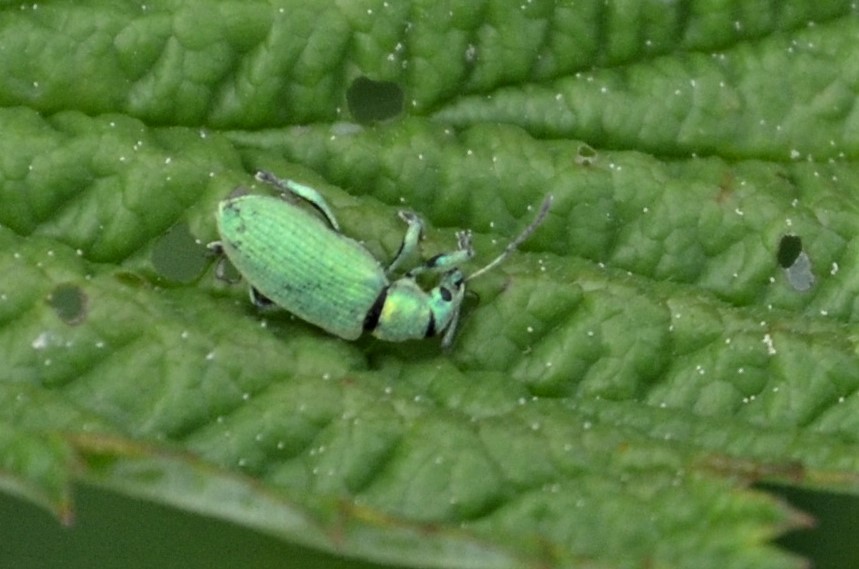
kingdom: Animalia
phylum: Arthropoda
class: Insecta
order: Coleoptera
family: Curculionidae
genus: Phyllobius
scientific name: Phyllobius maculicornis
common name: Green leaf weevil
